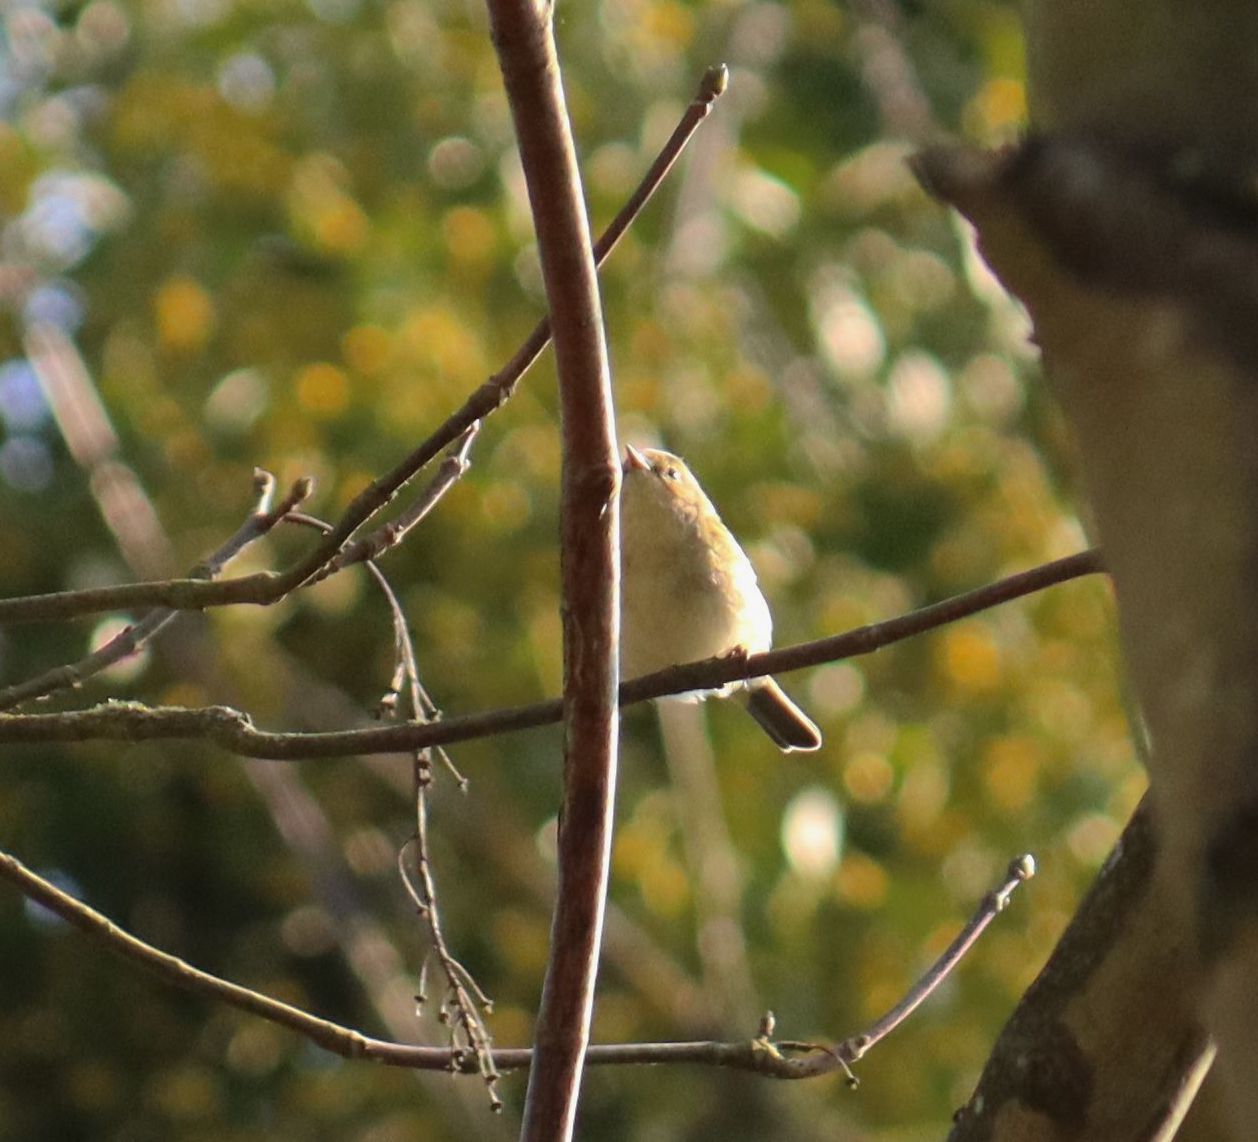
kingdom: Animalia
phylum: Chordata
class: Aves
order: Passeriformes
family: Phylloscopidae
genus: Phylloscopus
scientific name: Phylloscopus collybita
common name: Common chiffchaff
